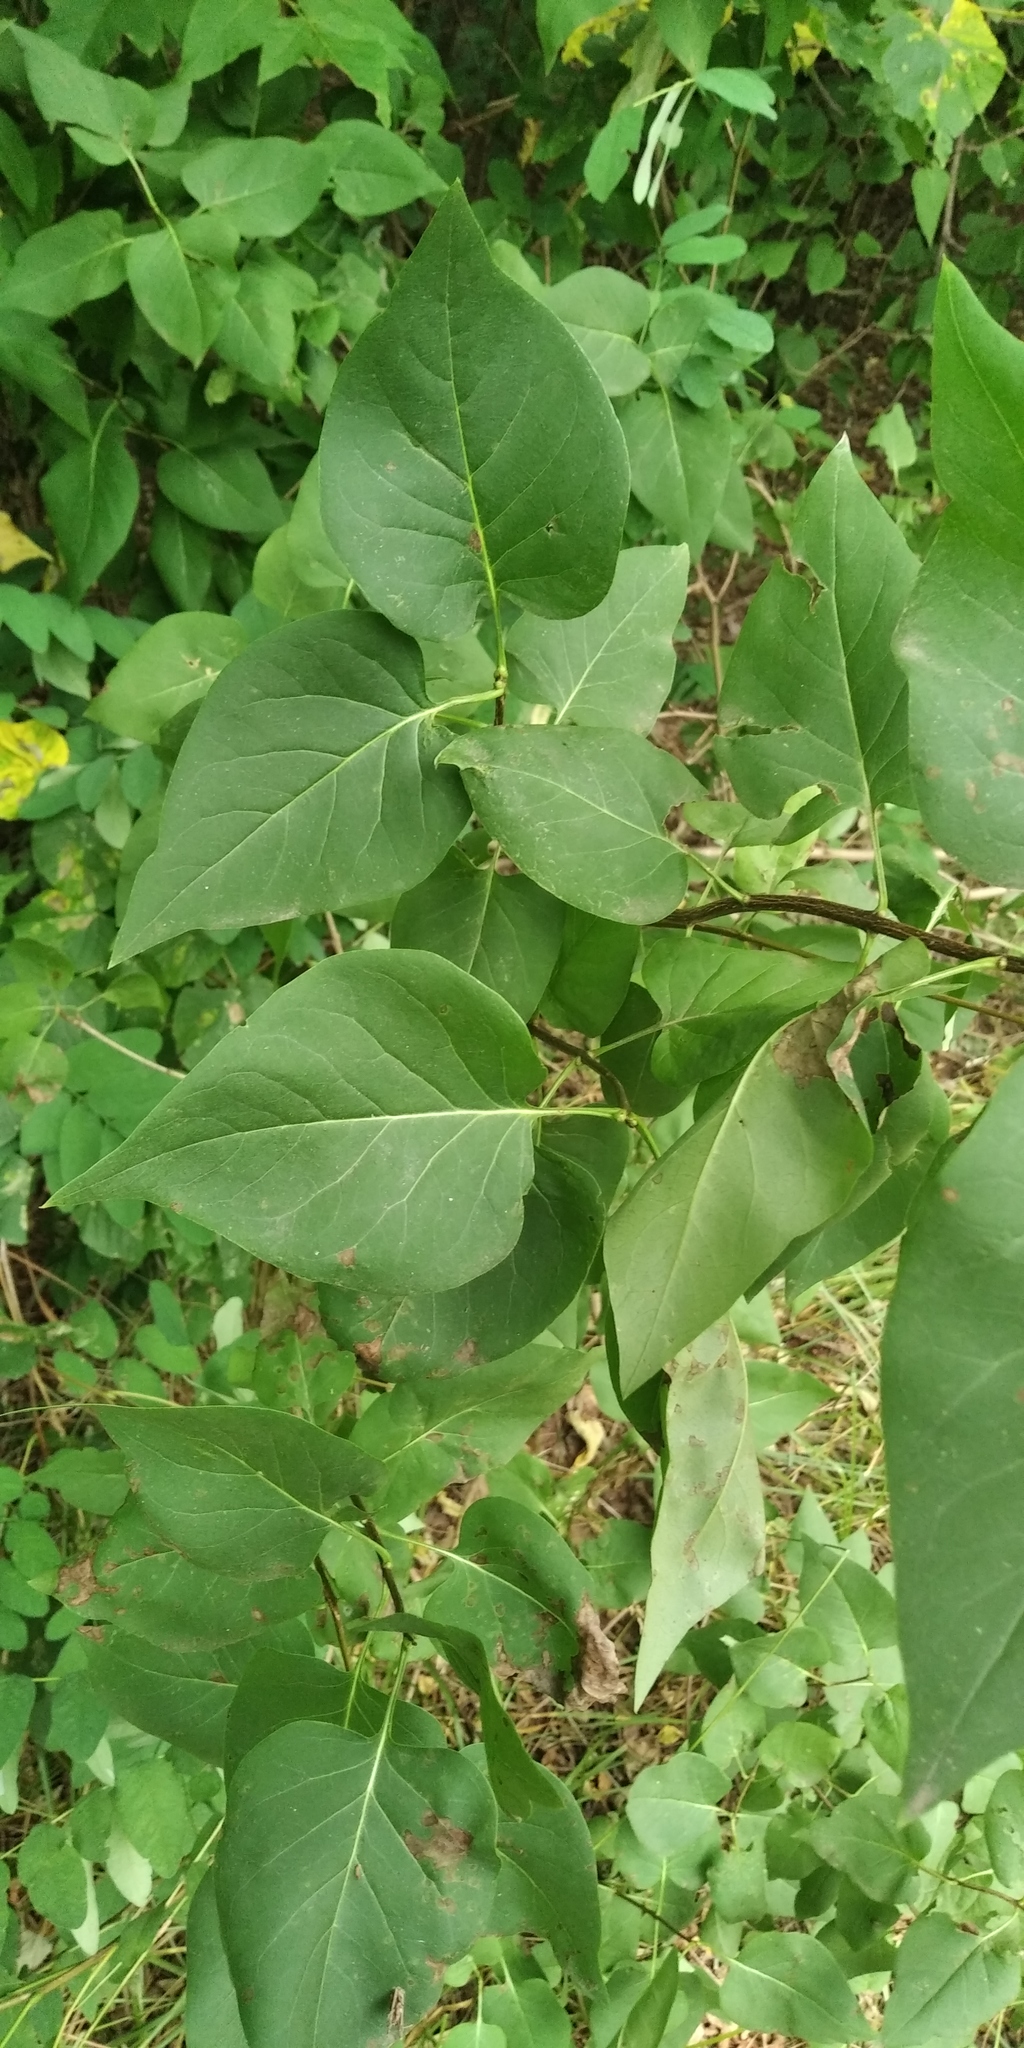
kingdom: Plantae
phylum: Tracheophyta
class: Magnoliopsida
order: Lamiales
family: Oleaceae
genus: Syringa
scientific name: Syringa vulgaris
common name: Common lilac
